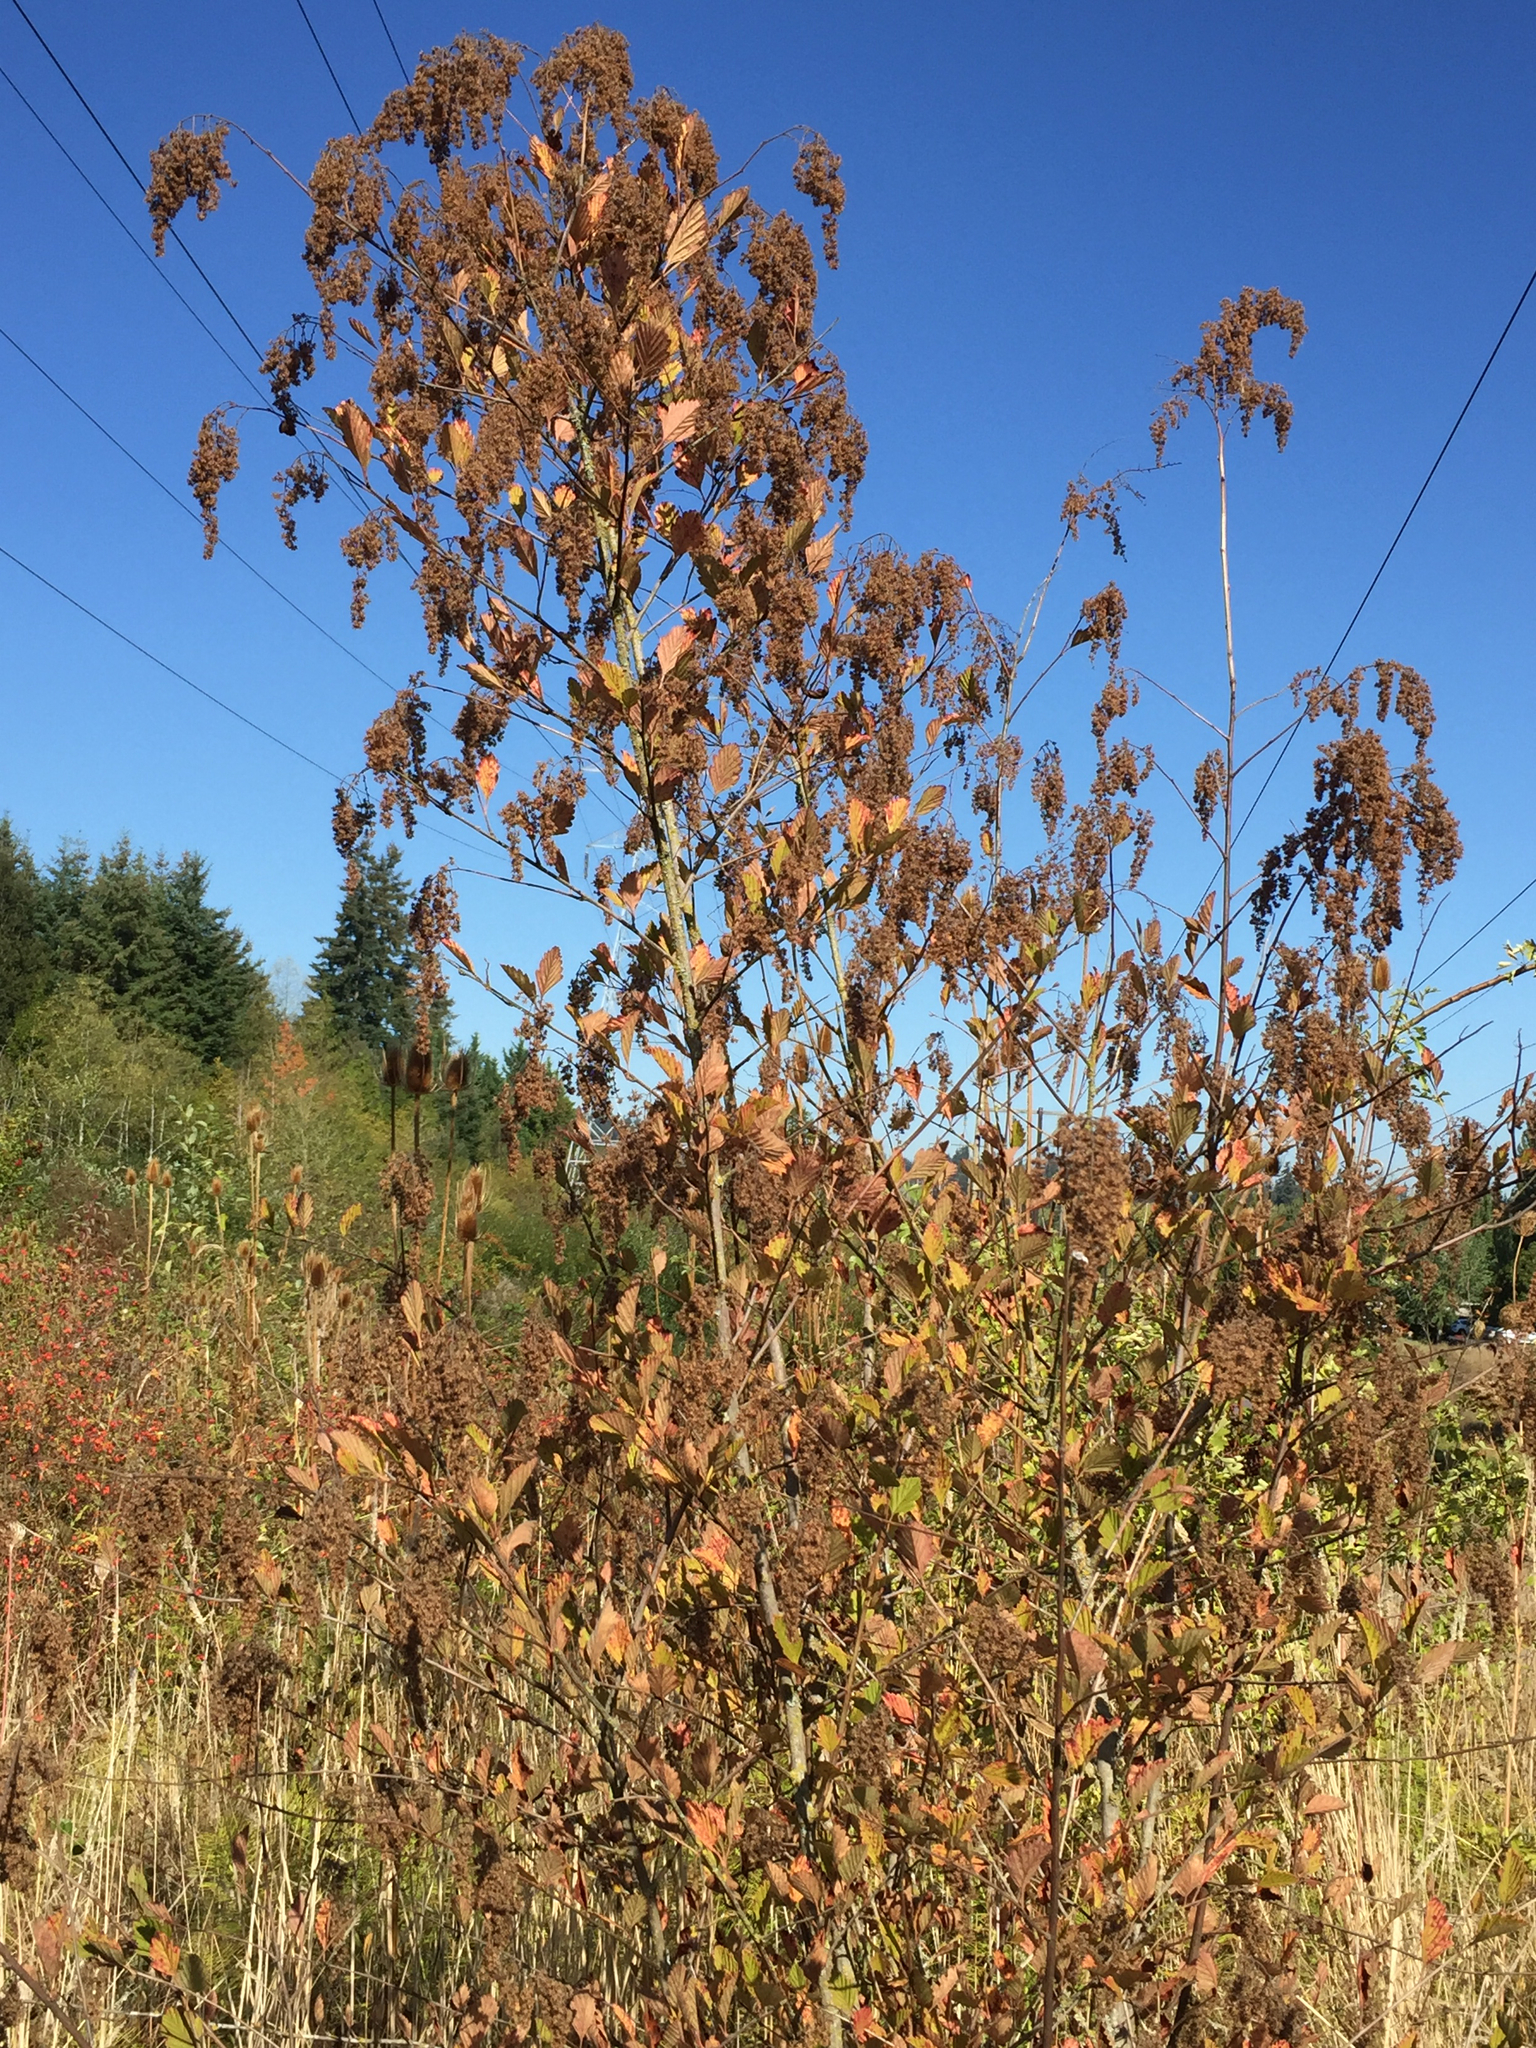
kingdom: Plantae
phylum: Tracheophyta
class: Magnoliopsida
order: Rosales
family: Rosaceae
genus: Holodiscus
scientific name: Holodiscus discolor
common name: Oceanspray
